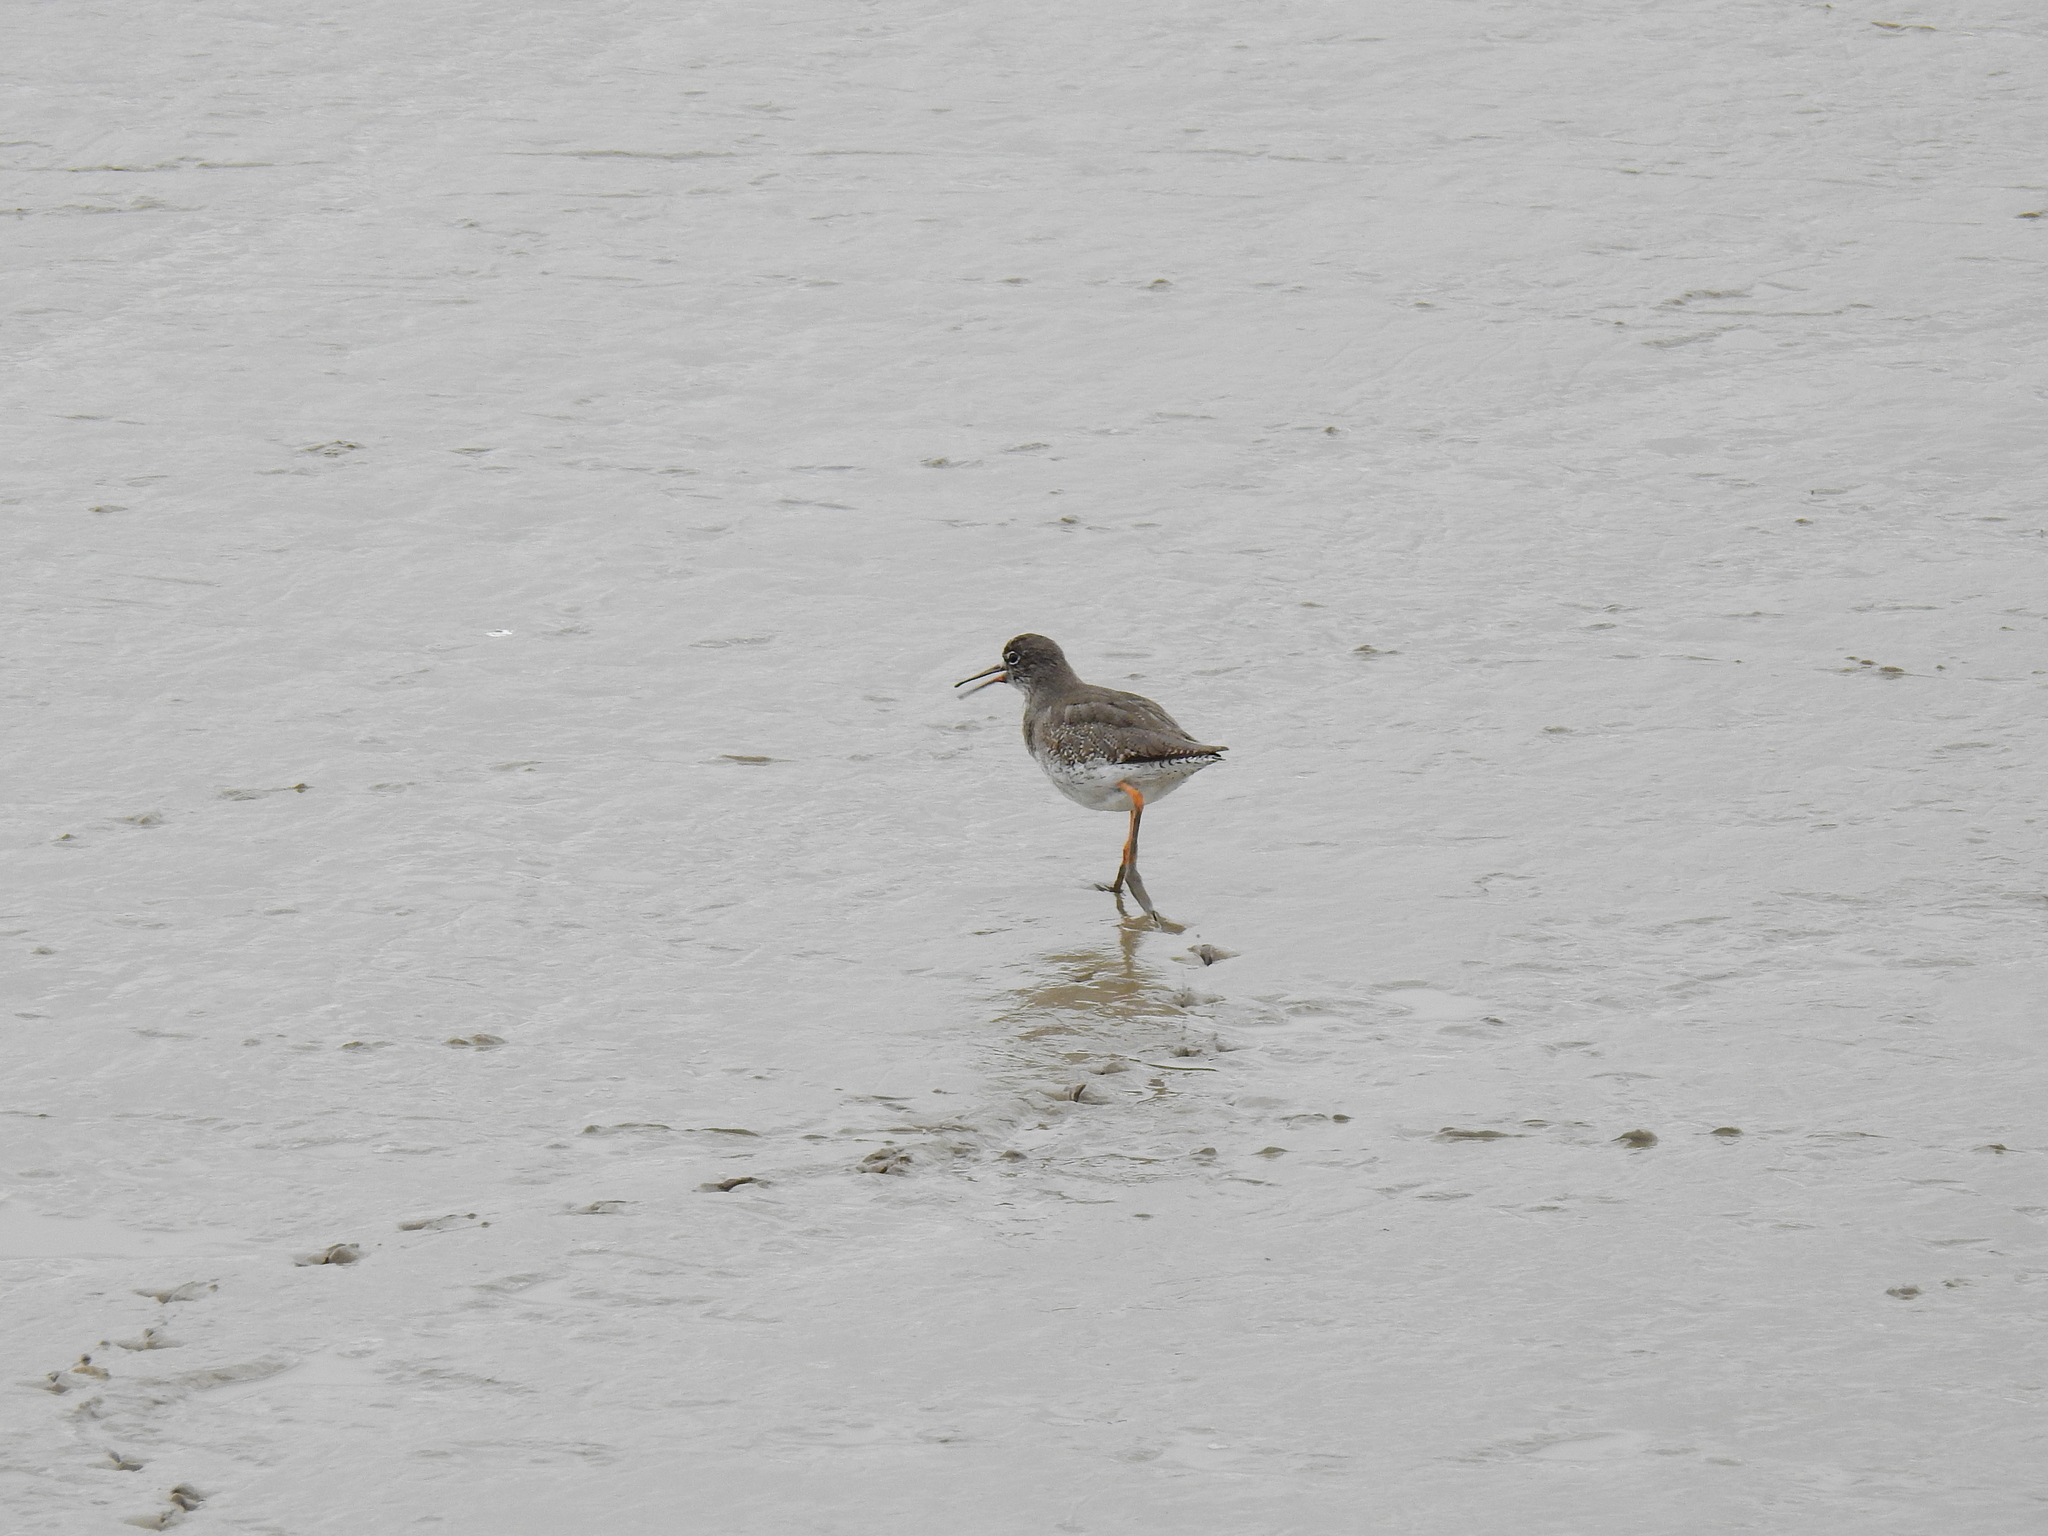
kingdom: Animalia
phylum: Chordata
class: Aves
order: Charadriiformes
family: Scolopacidae
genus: Tringa
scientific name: Tringa totanus
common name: Common redshank
